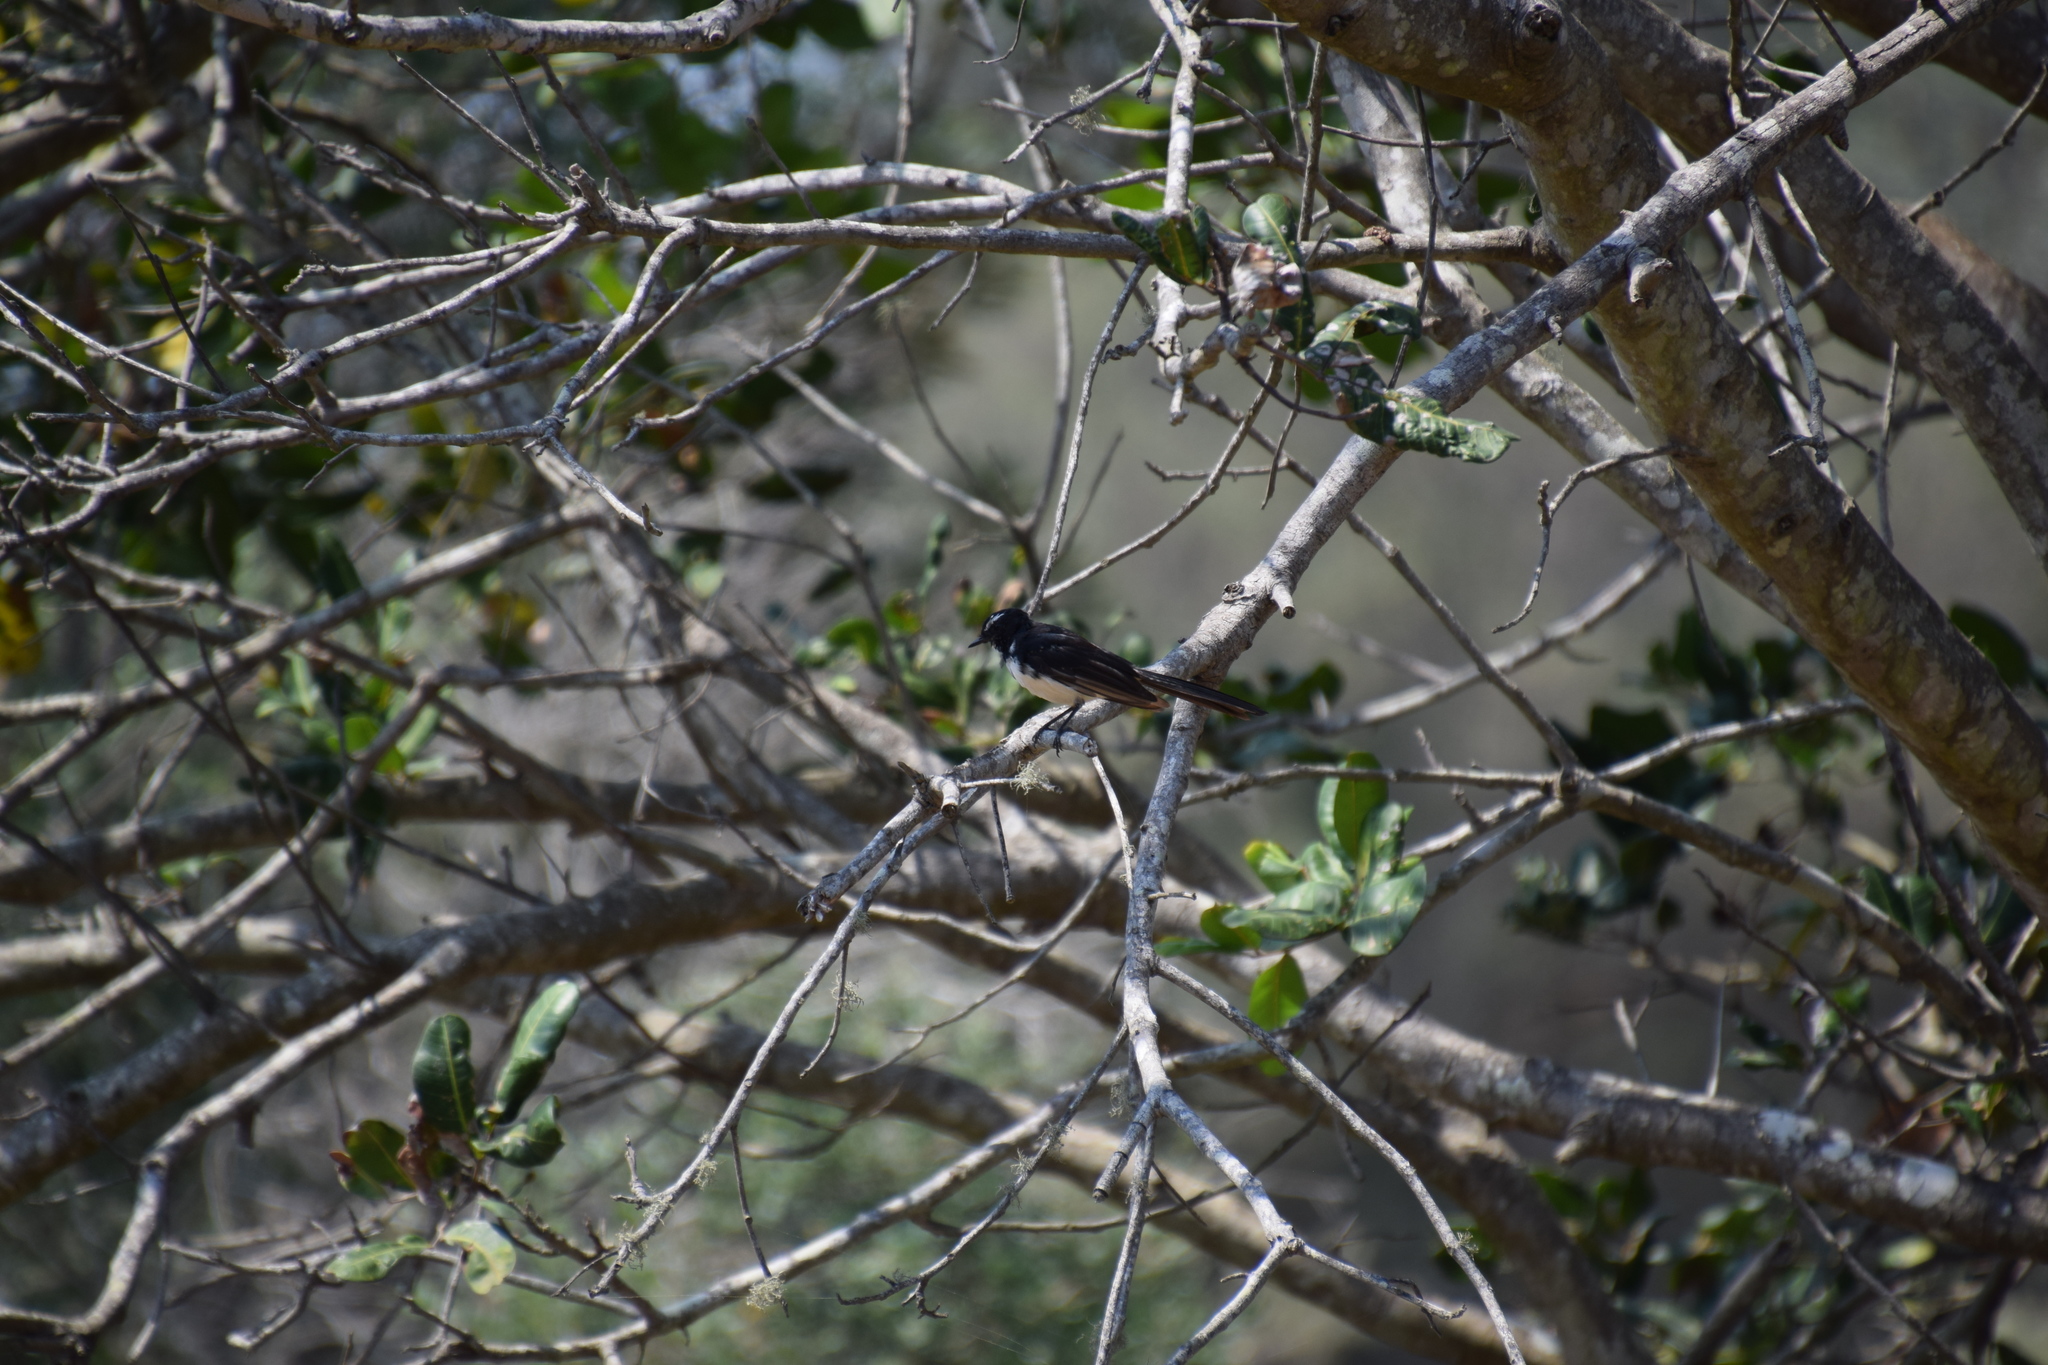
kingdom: Animalia
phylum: Chordata
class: Aves
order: Passeriformes
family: Rhipiduridae
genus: Rhipidura
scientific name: Rhipidura leucophrys
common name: Willie wagtail
